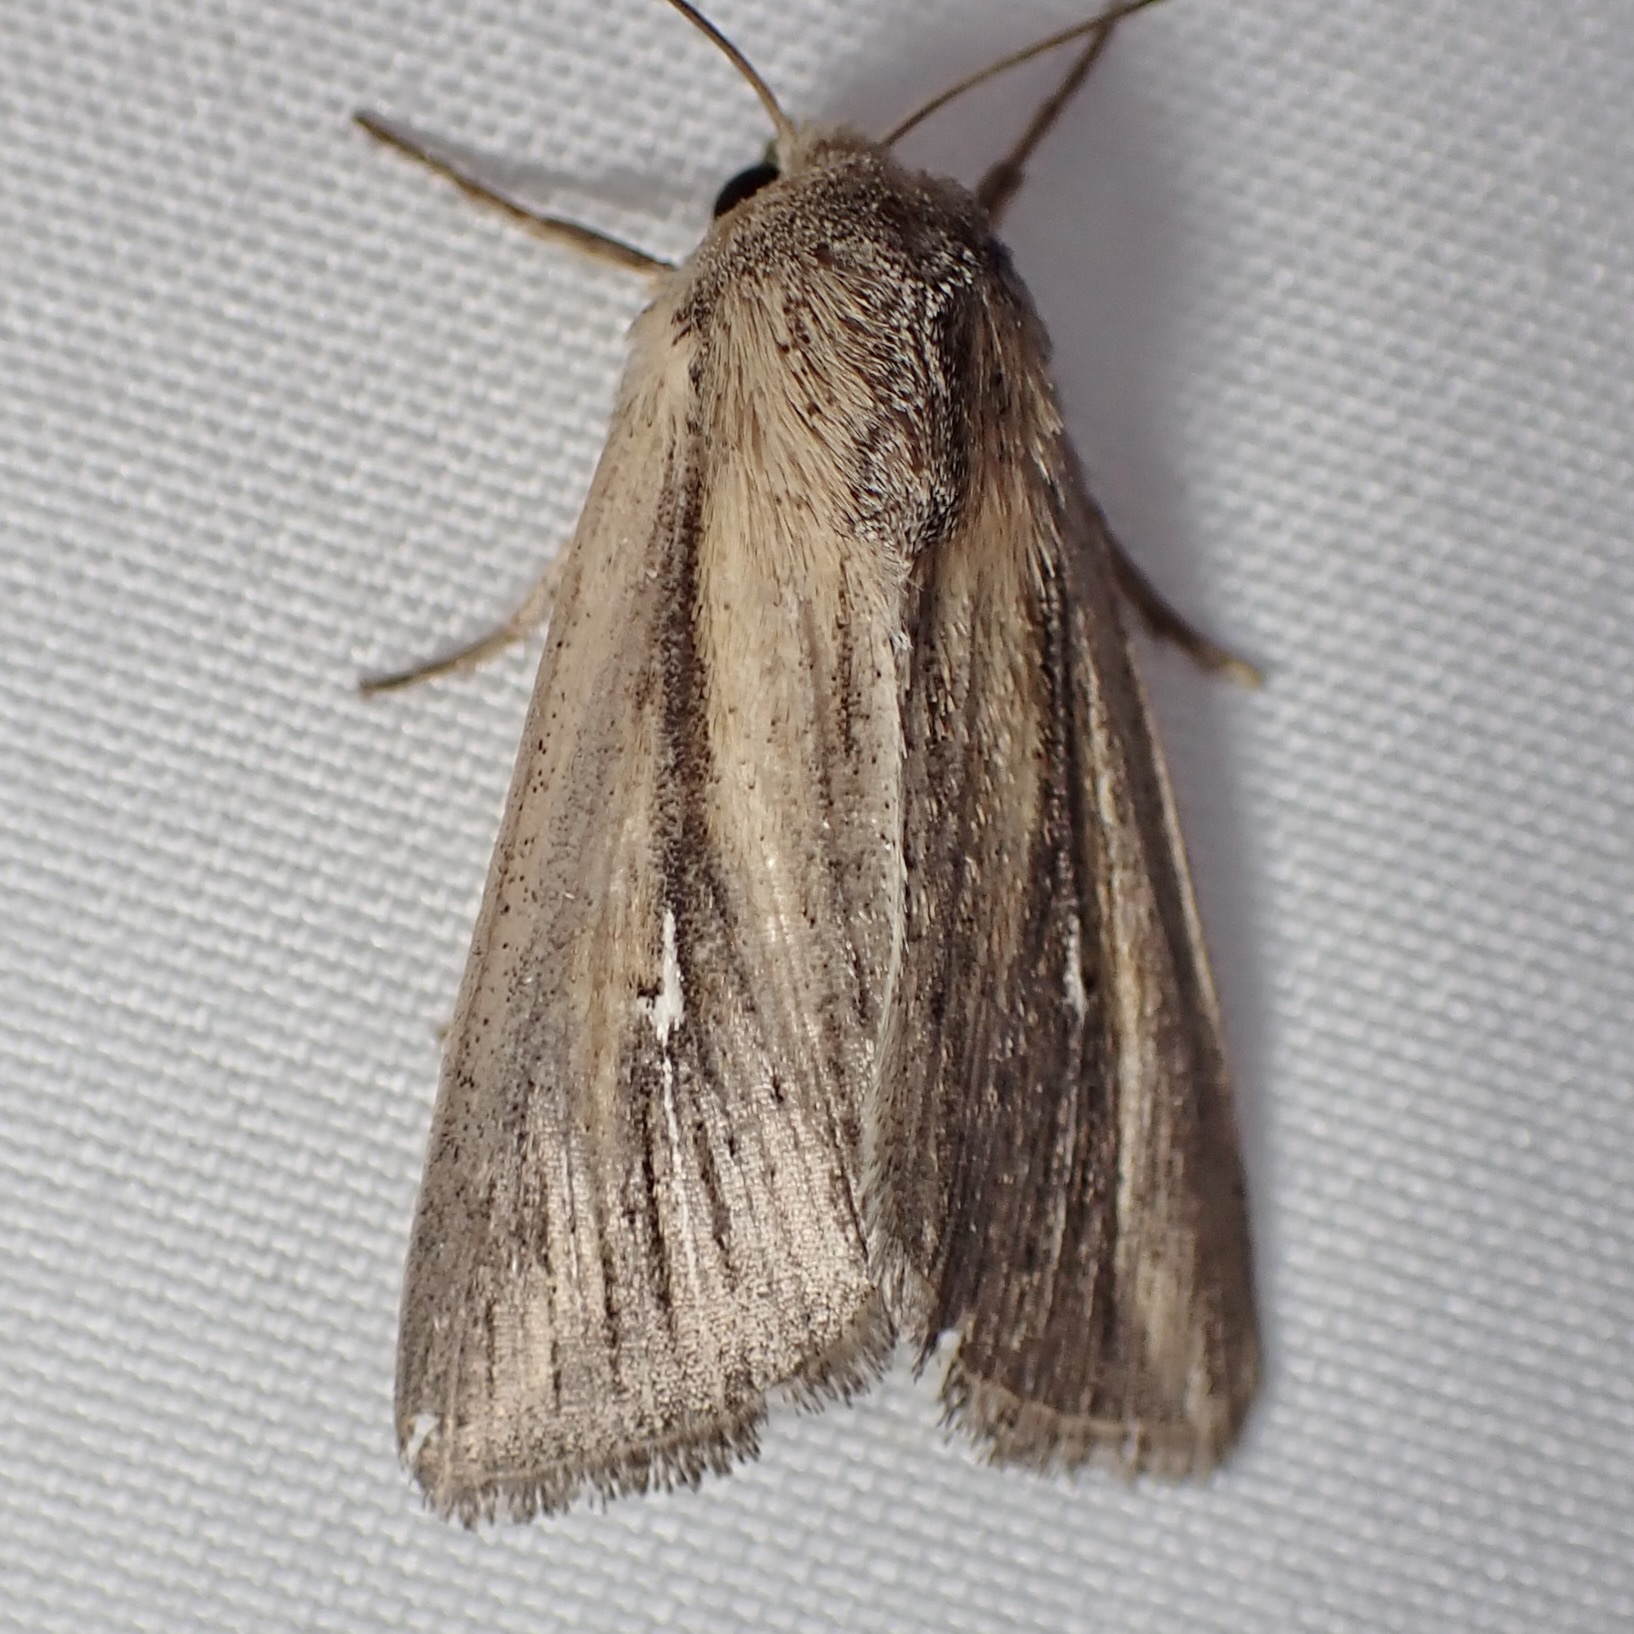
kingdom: Animalia
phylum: Arthropoda
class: Insecta
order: Lepidoptera
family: Noctuidae
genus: Leucania
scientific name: Leucania imperfecta
